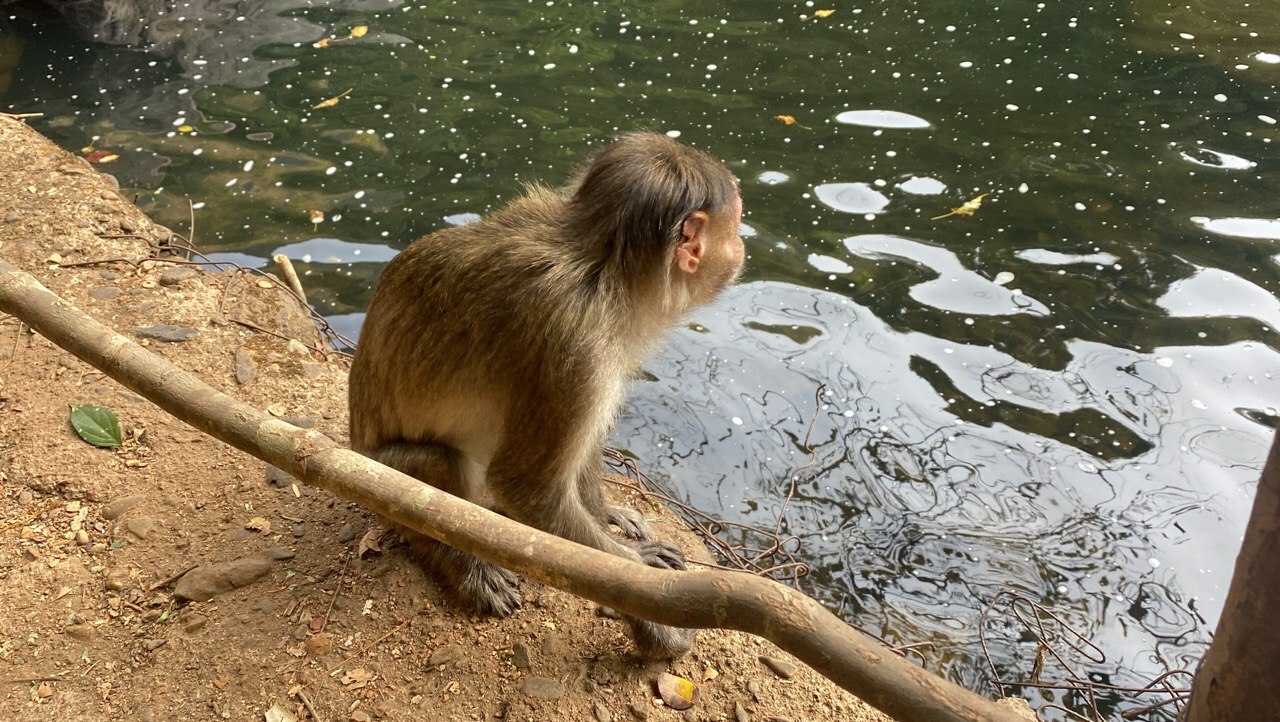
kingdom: Animalia
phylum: Chordata
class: Mammalia
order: Primates
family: Cercopithecidae
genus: Macaca
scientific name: Macaca radiata
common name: Bonnet macaque
